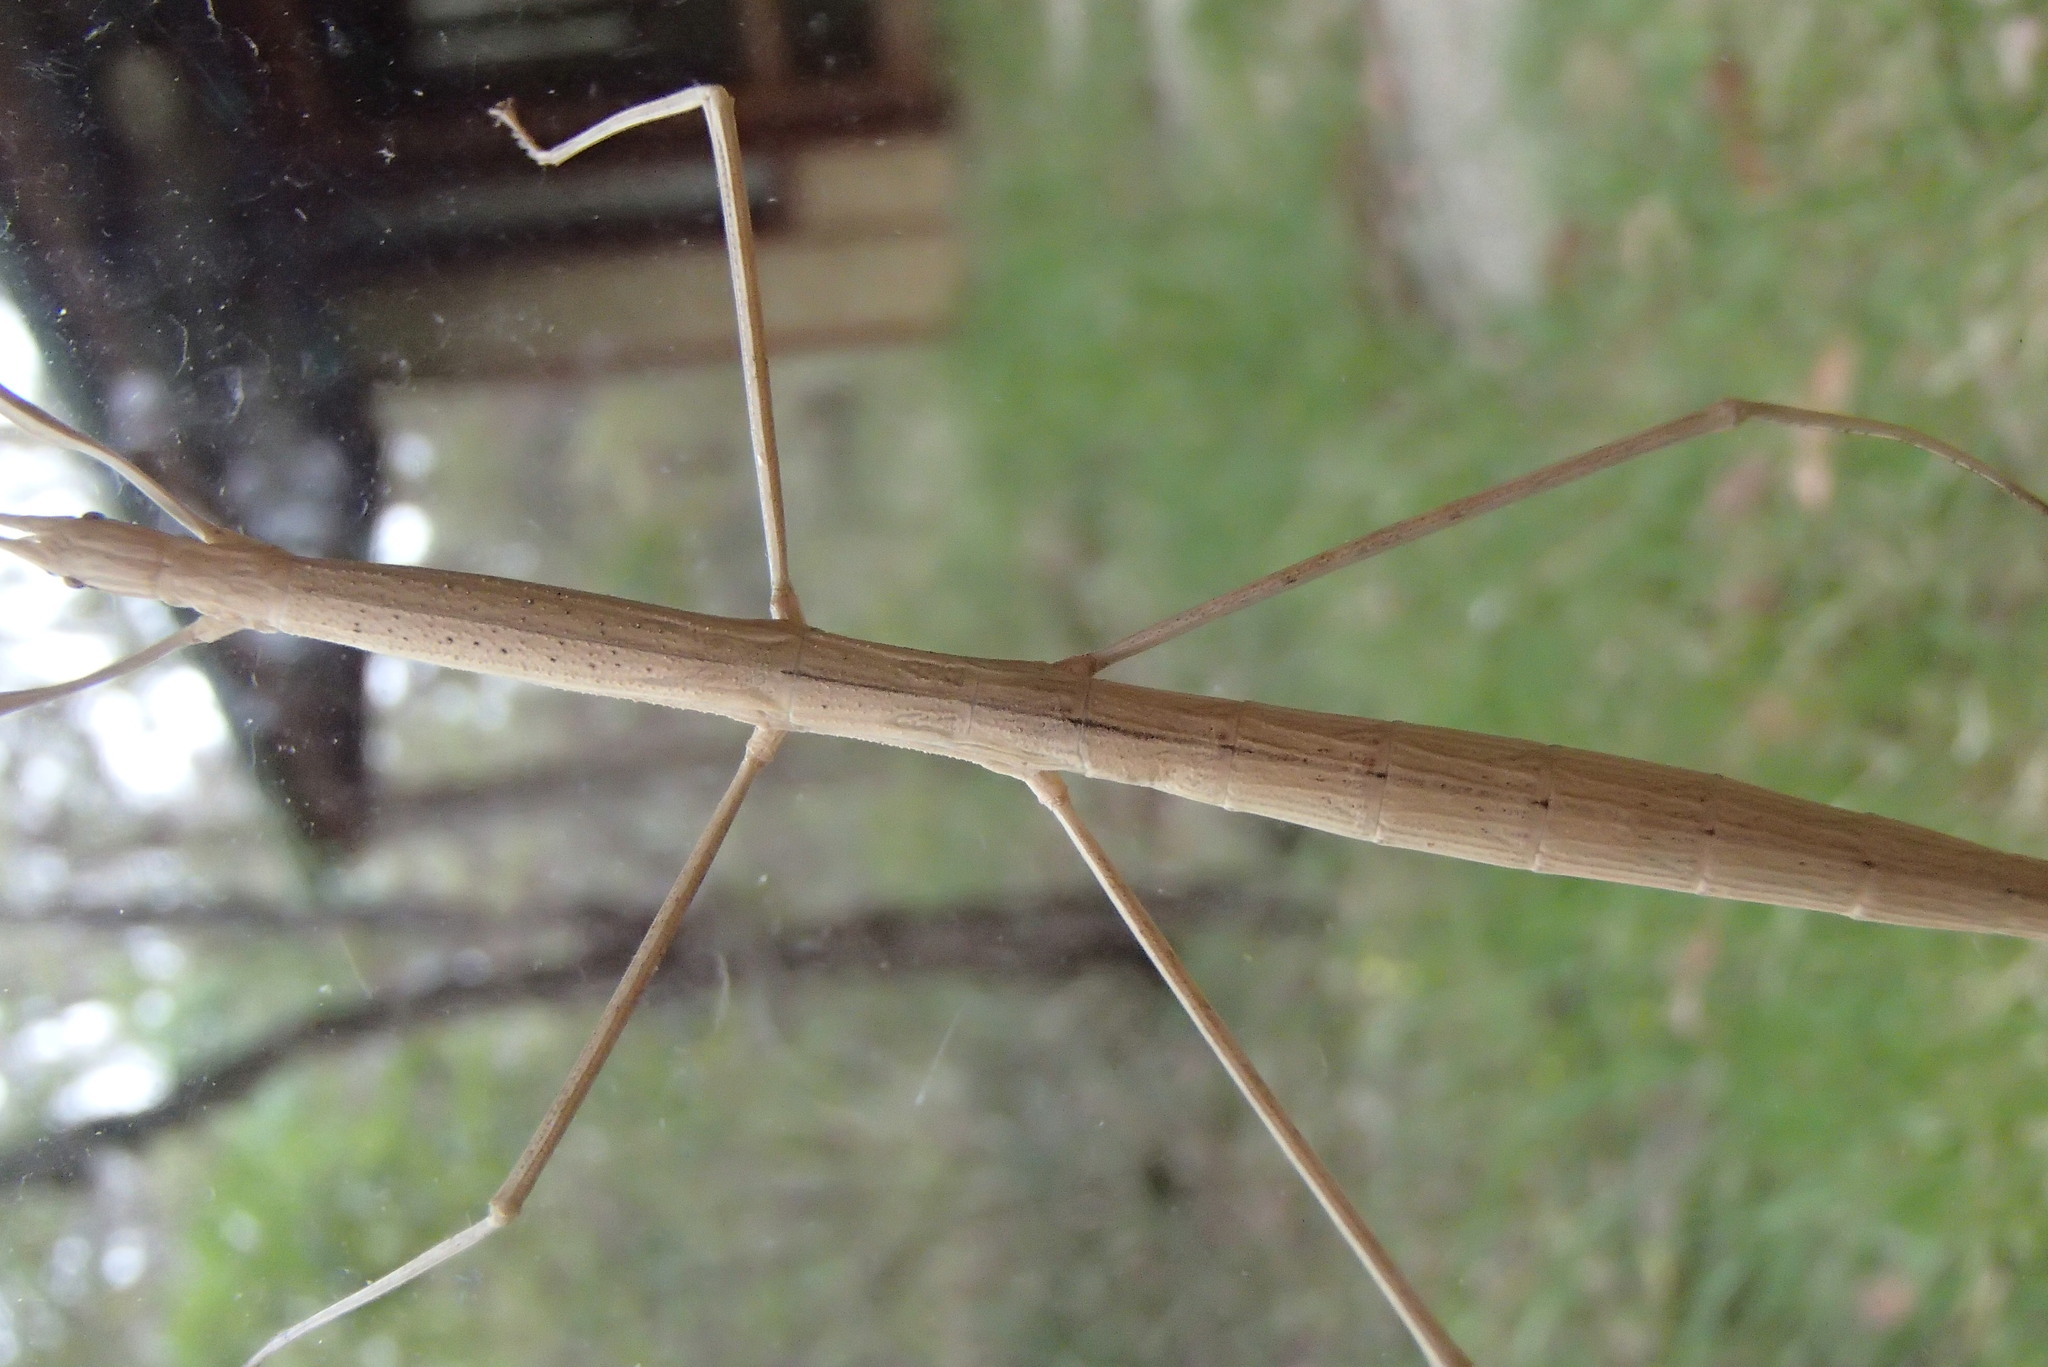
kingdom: Animalia
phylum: Arthropoda
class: Insecta
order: Phasmida
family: Lonchodidae
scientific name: Lonchodidae
